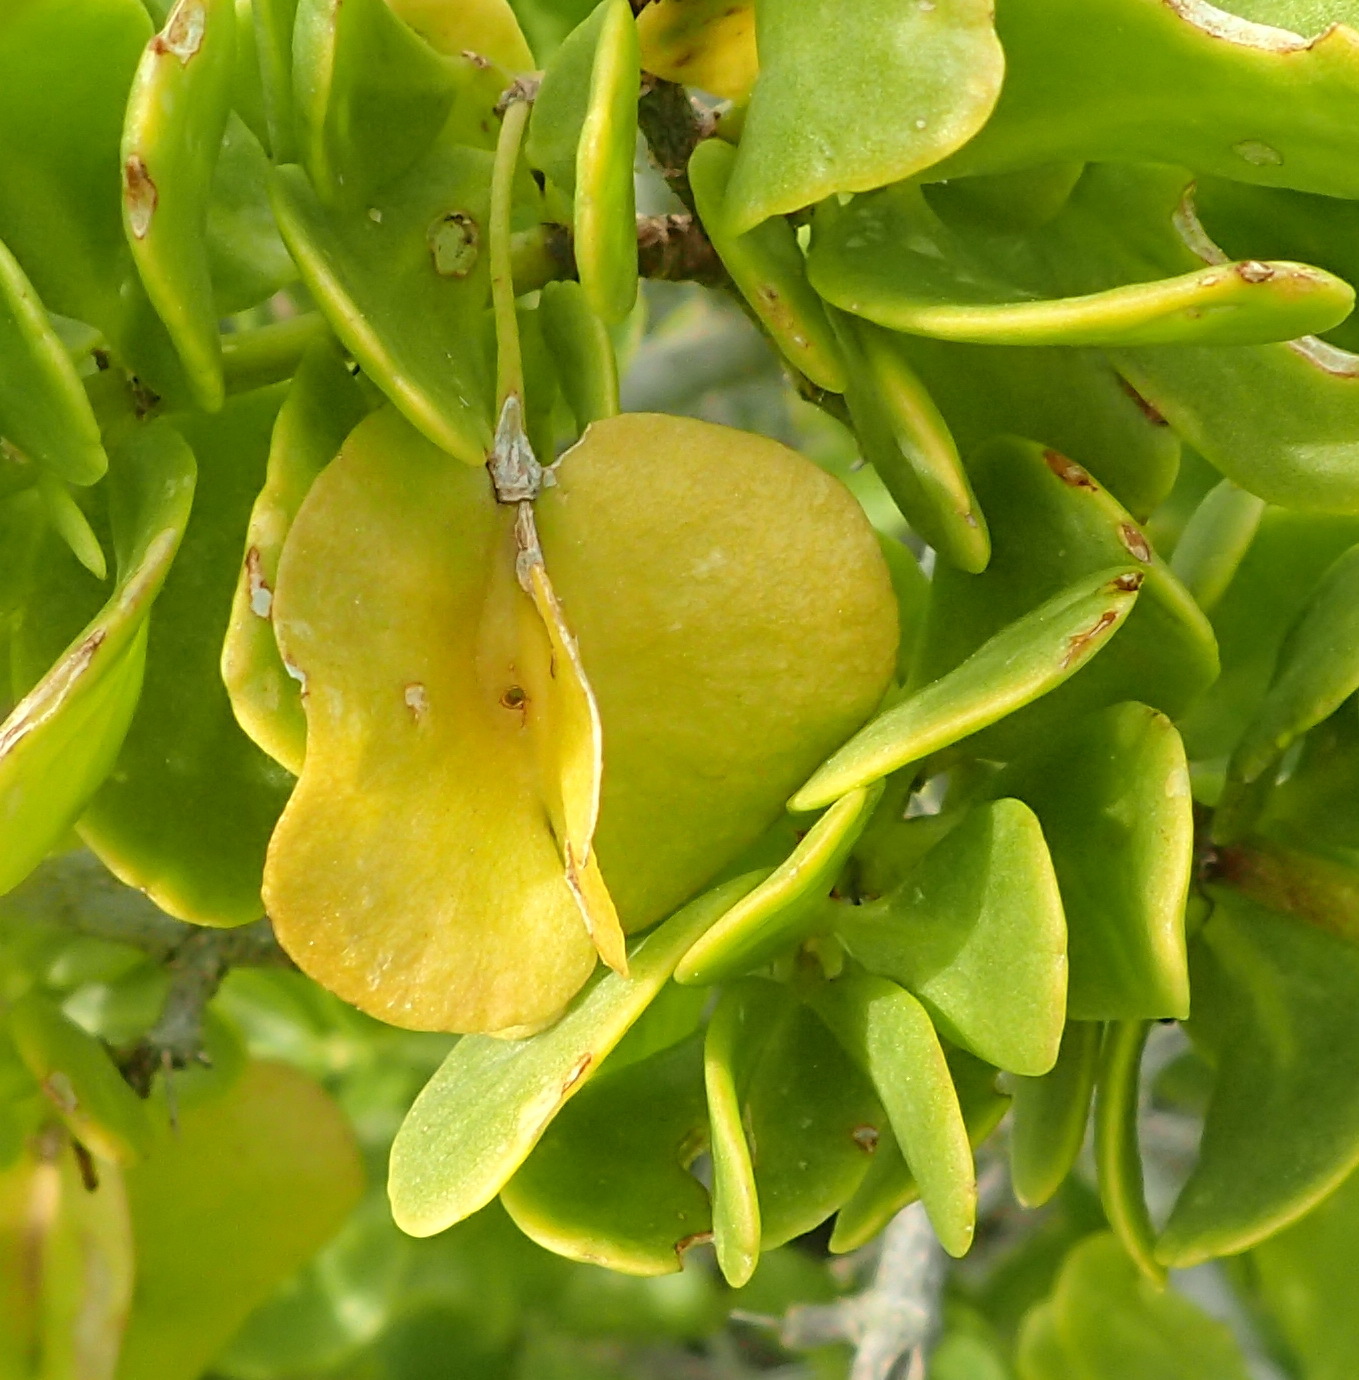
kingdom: Plantae
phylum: Tracheophyta
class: Magnoliopsida
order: Zygophyllales
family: Zygophyllaceae
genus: Roepera
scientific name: Roepera morgsana
